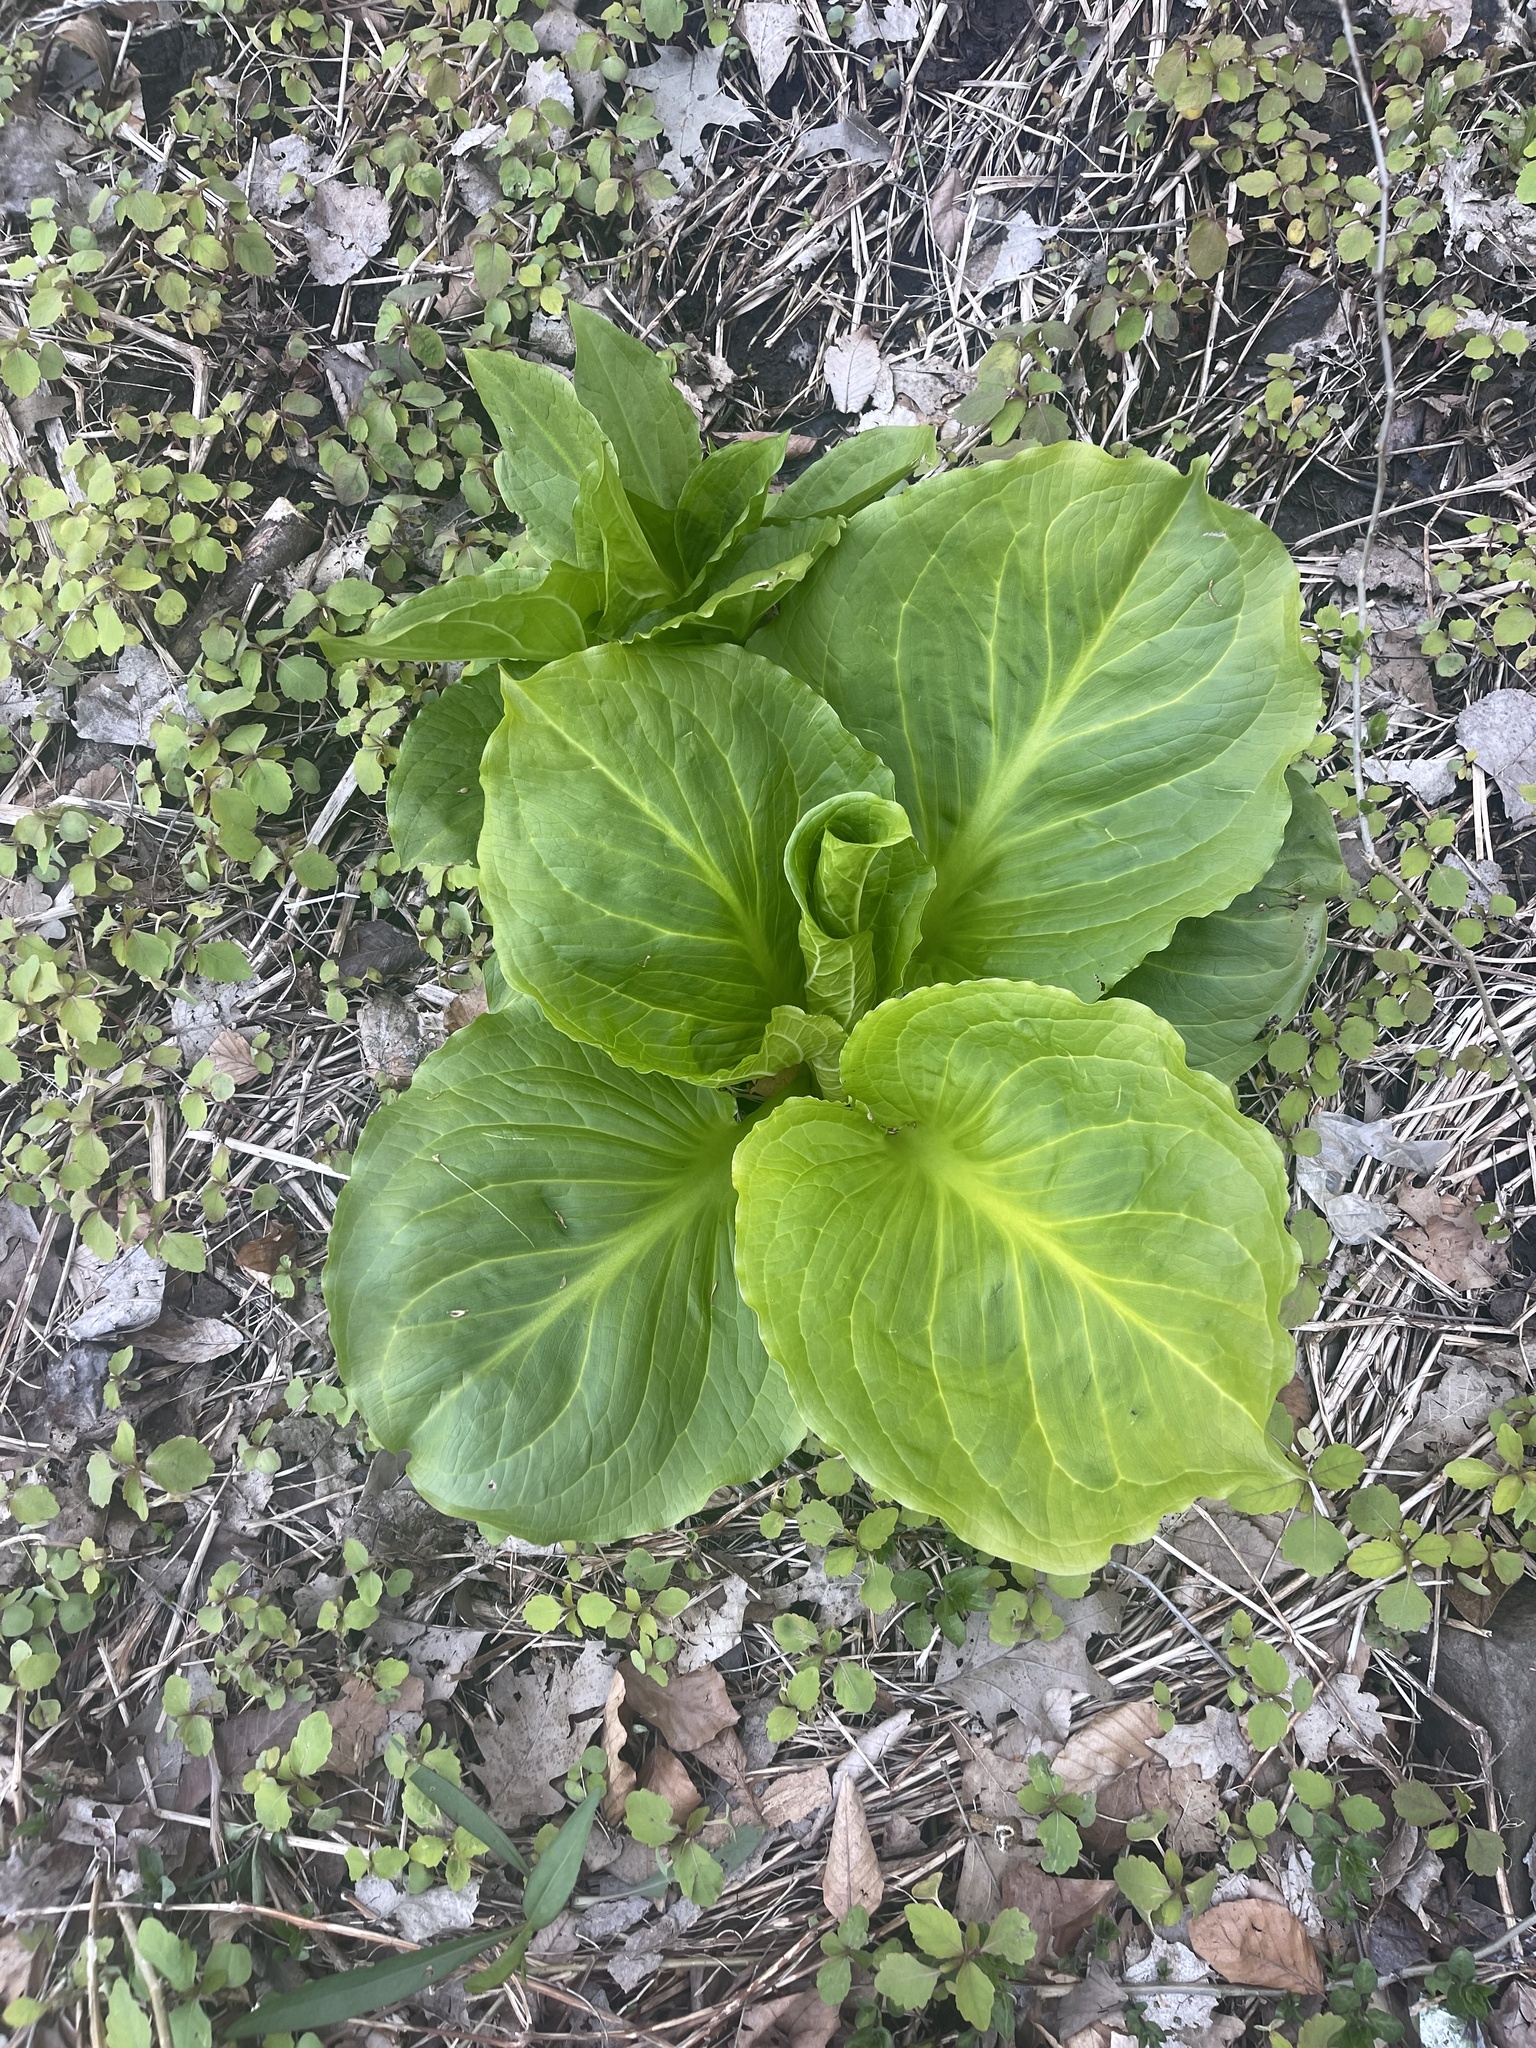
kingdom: Plantae
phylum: Tracheophyta
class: Liliopsida
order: Alismatales
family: Araceae
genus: Symplocarpus
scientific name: Symplocarpus foetidus
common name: Eastern skunk cabbage
